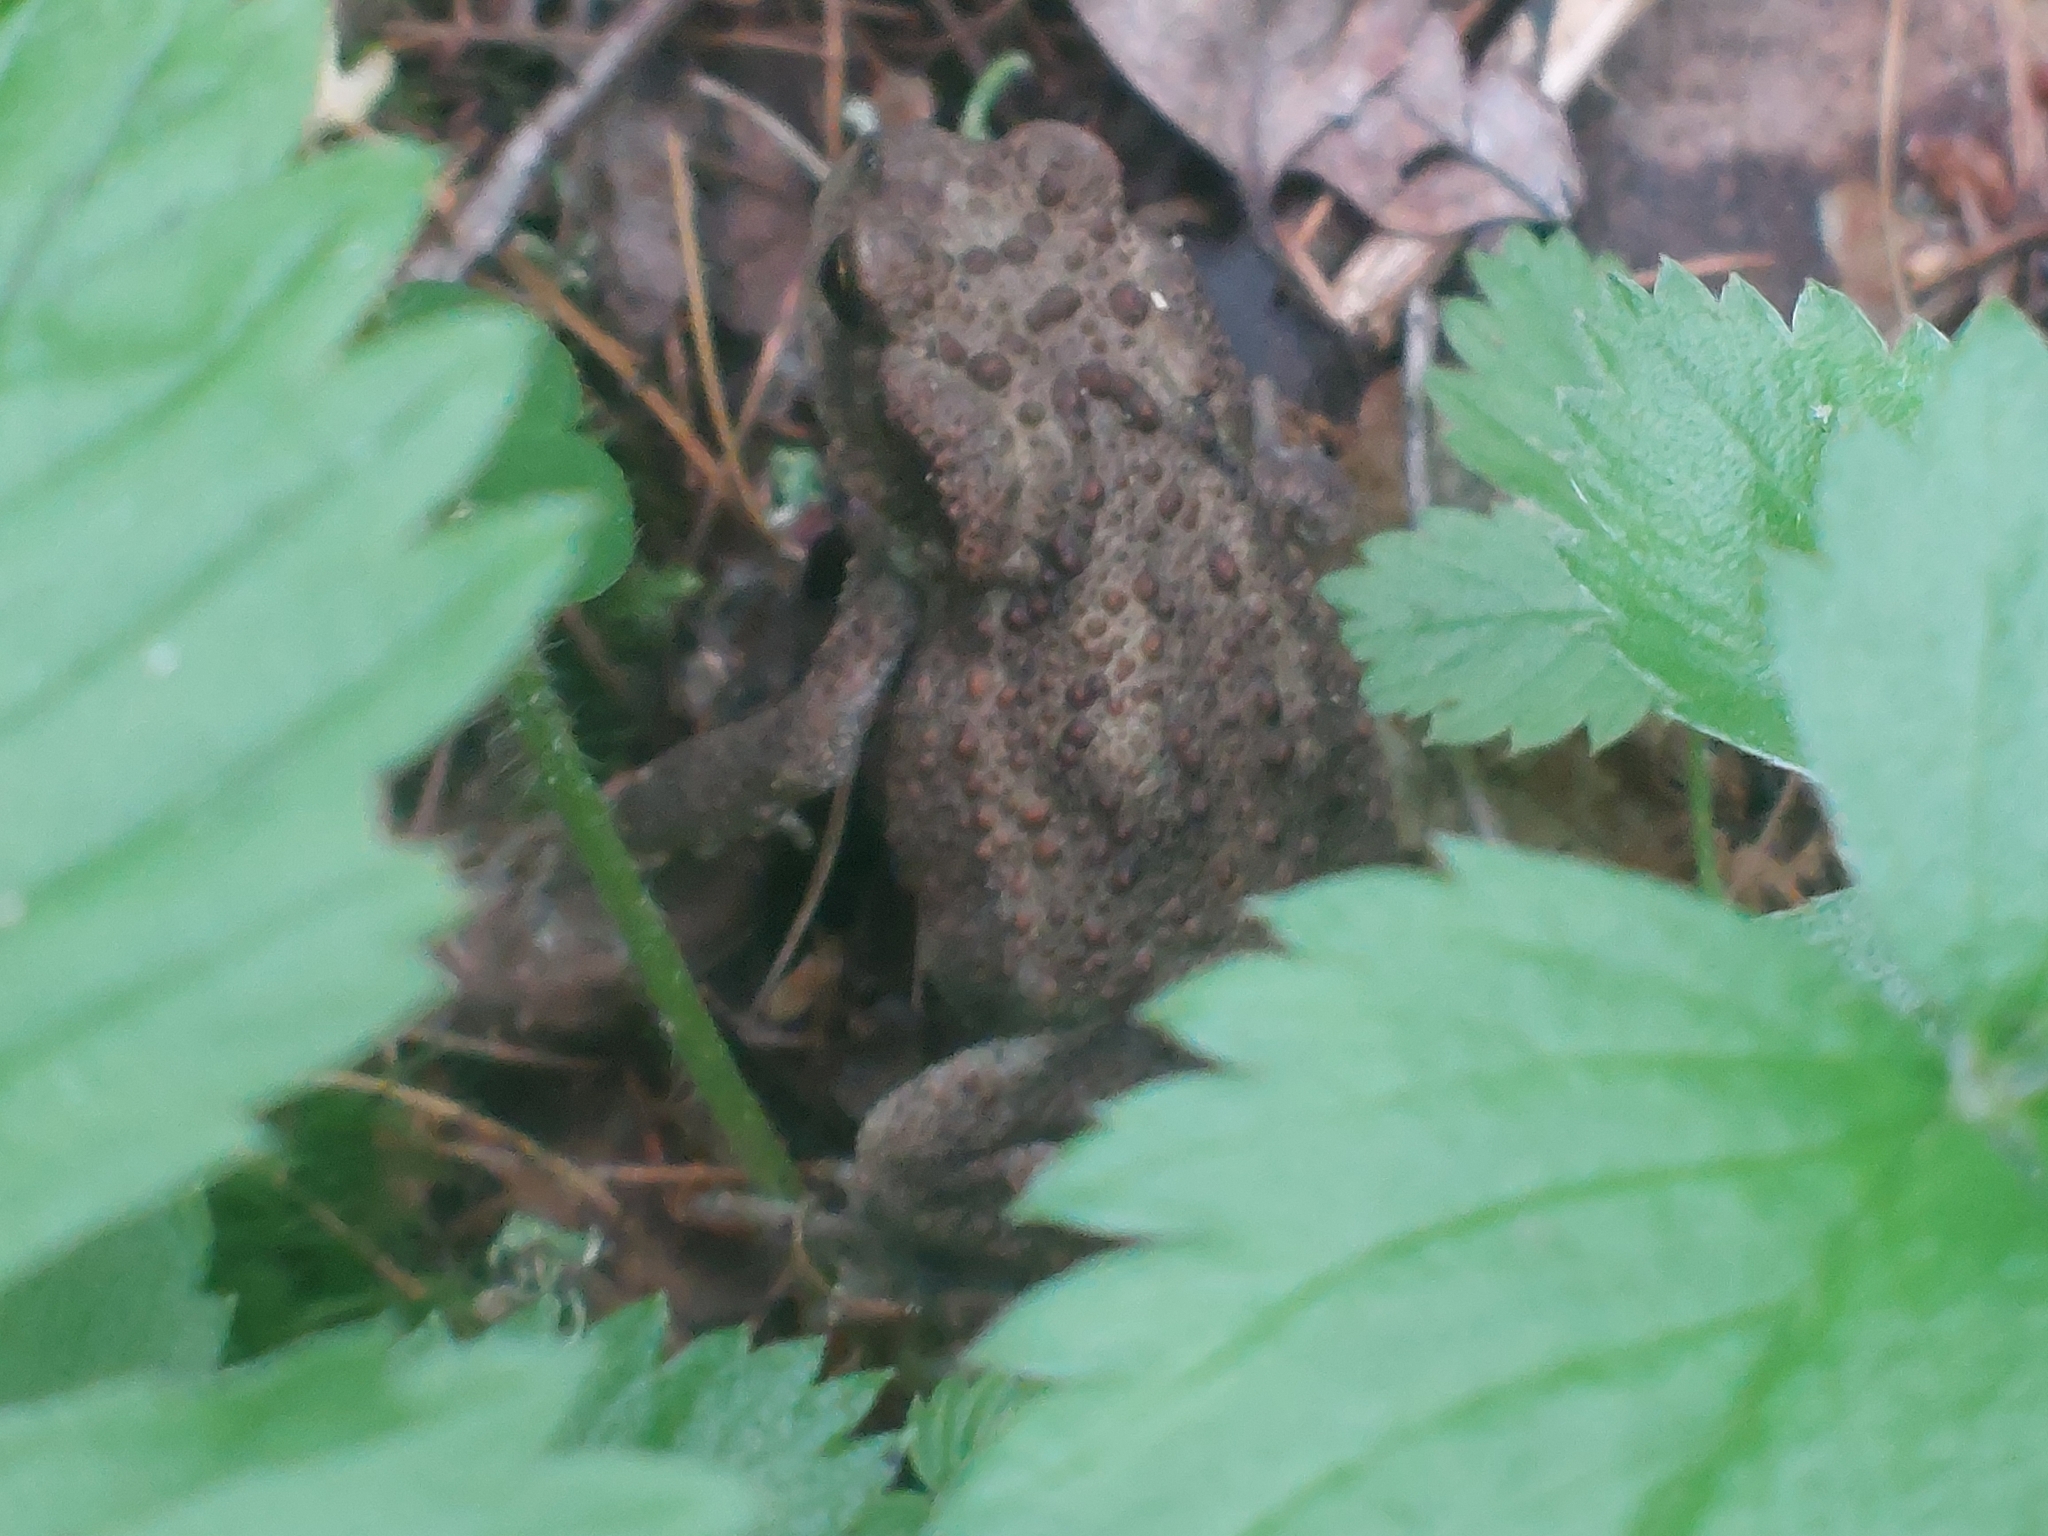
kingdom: Animalia
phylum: Chordata
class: Amphibia
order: Anura
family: Bufonidae
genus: Bufo
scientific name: Bufo bufo
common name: Common toad
